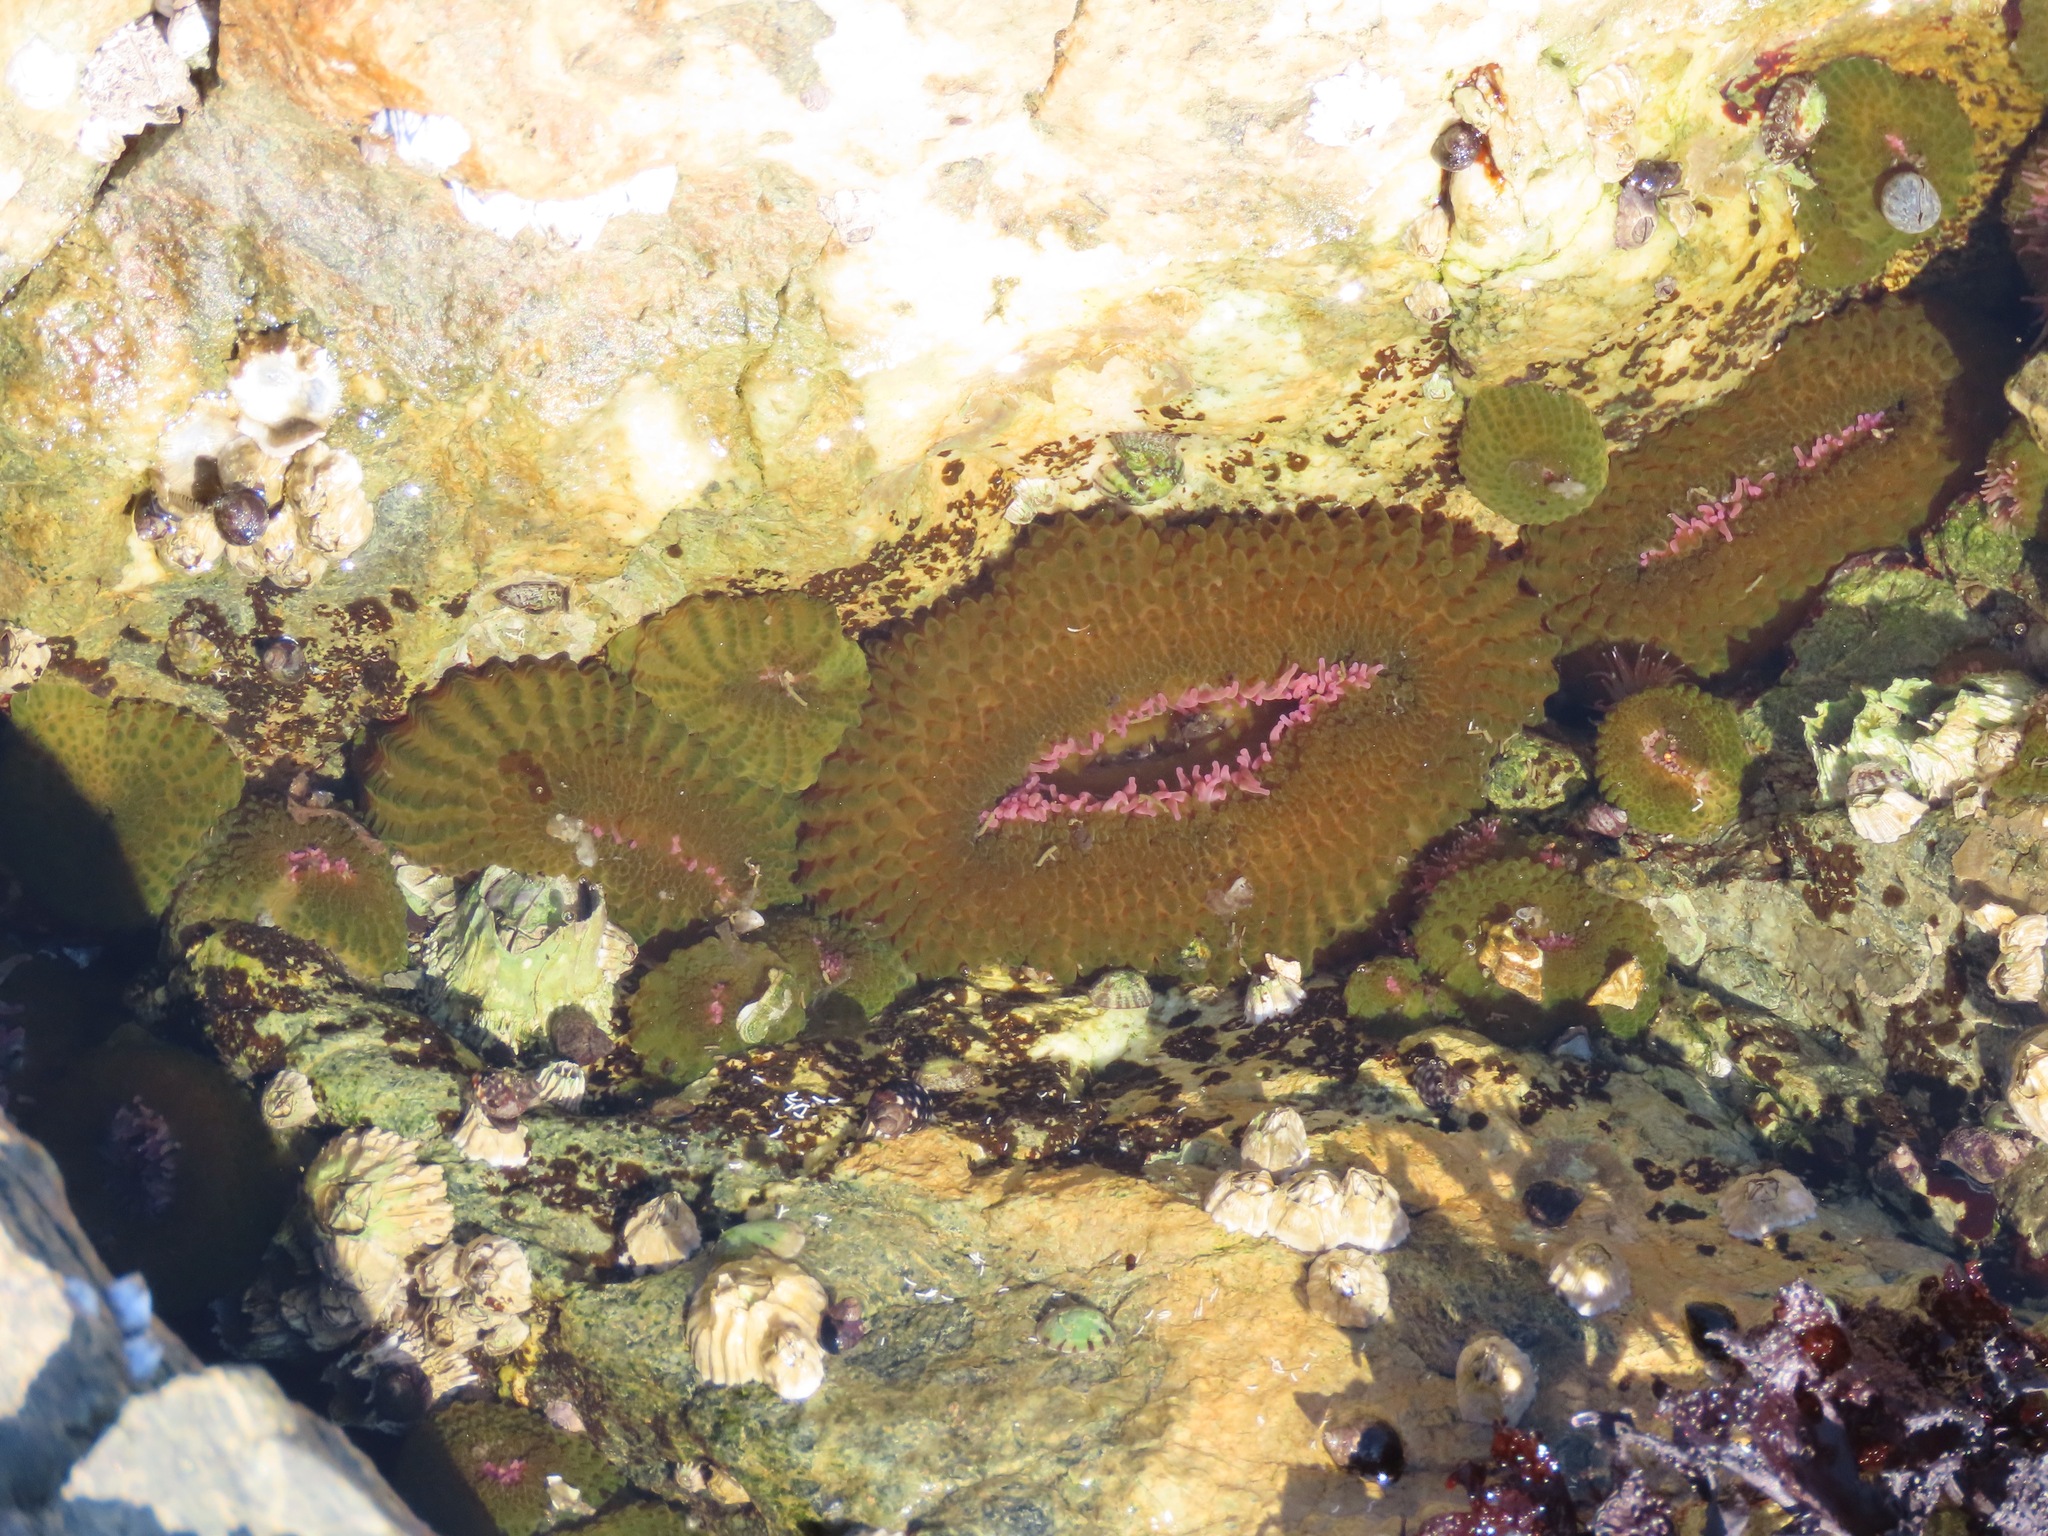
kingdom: Animalia
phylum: Cnidaria
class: Anthozoa
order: Actiniaria
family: Actiniidae
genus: Anthopleura
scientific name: Anthopleura elegantissima
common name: Clonal anemone
